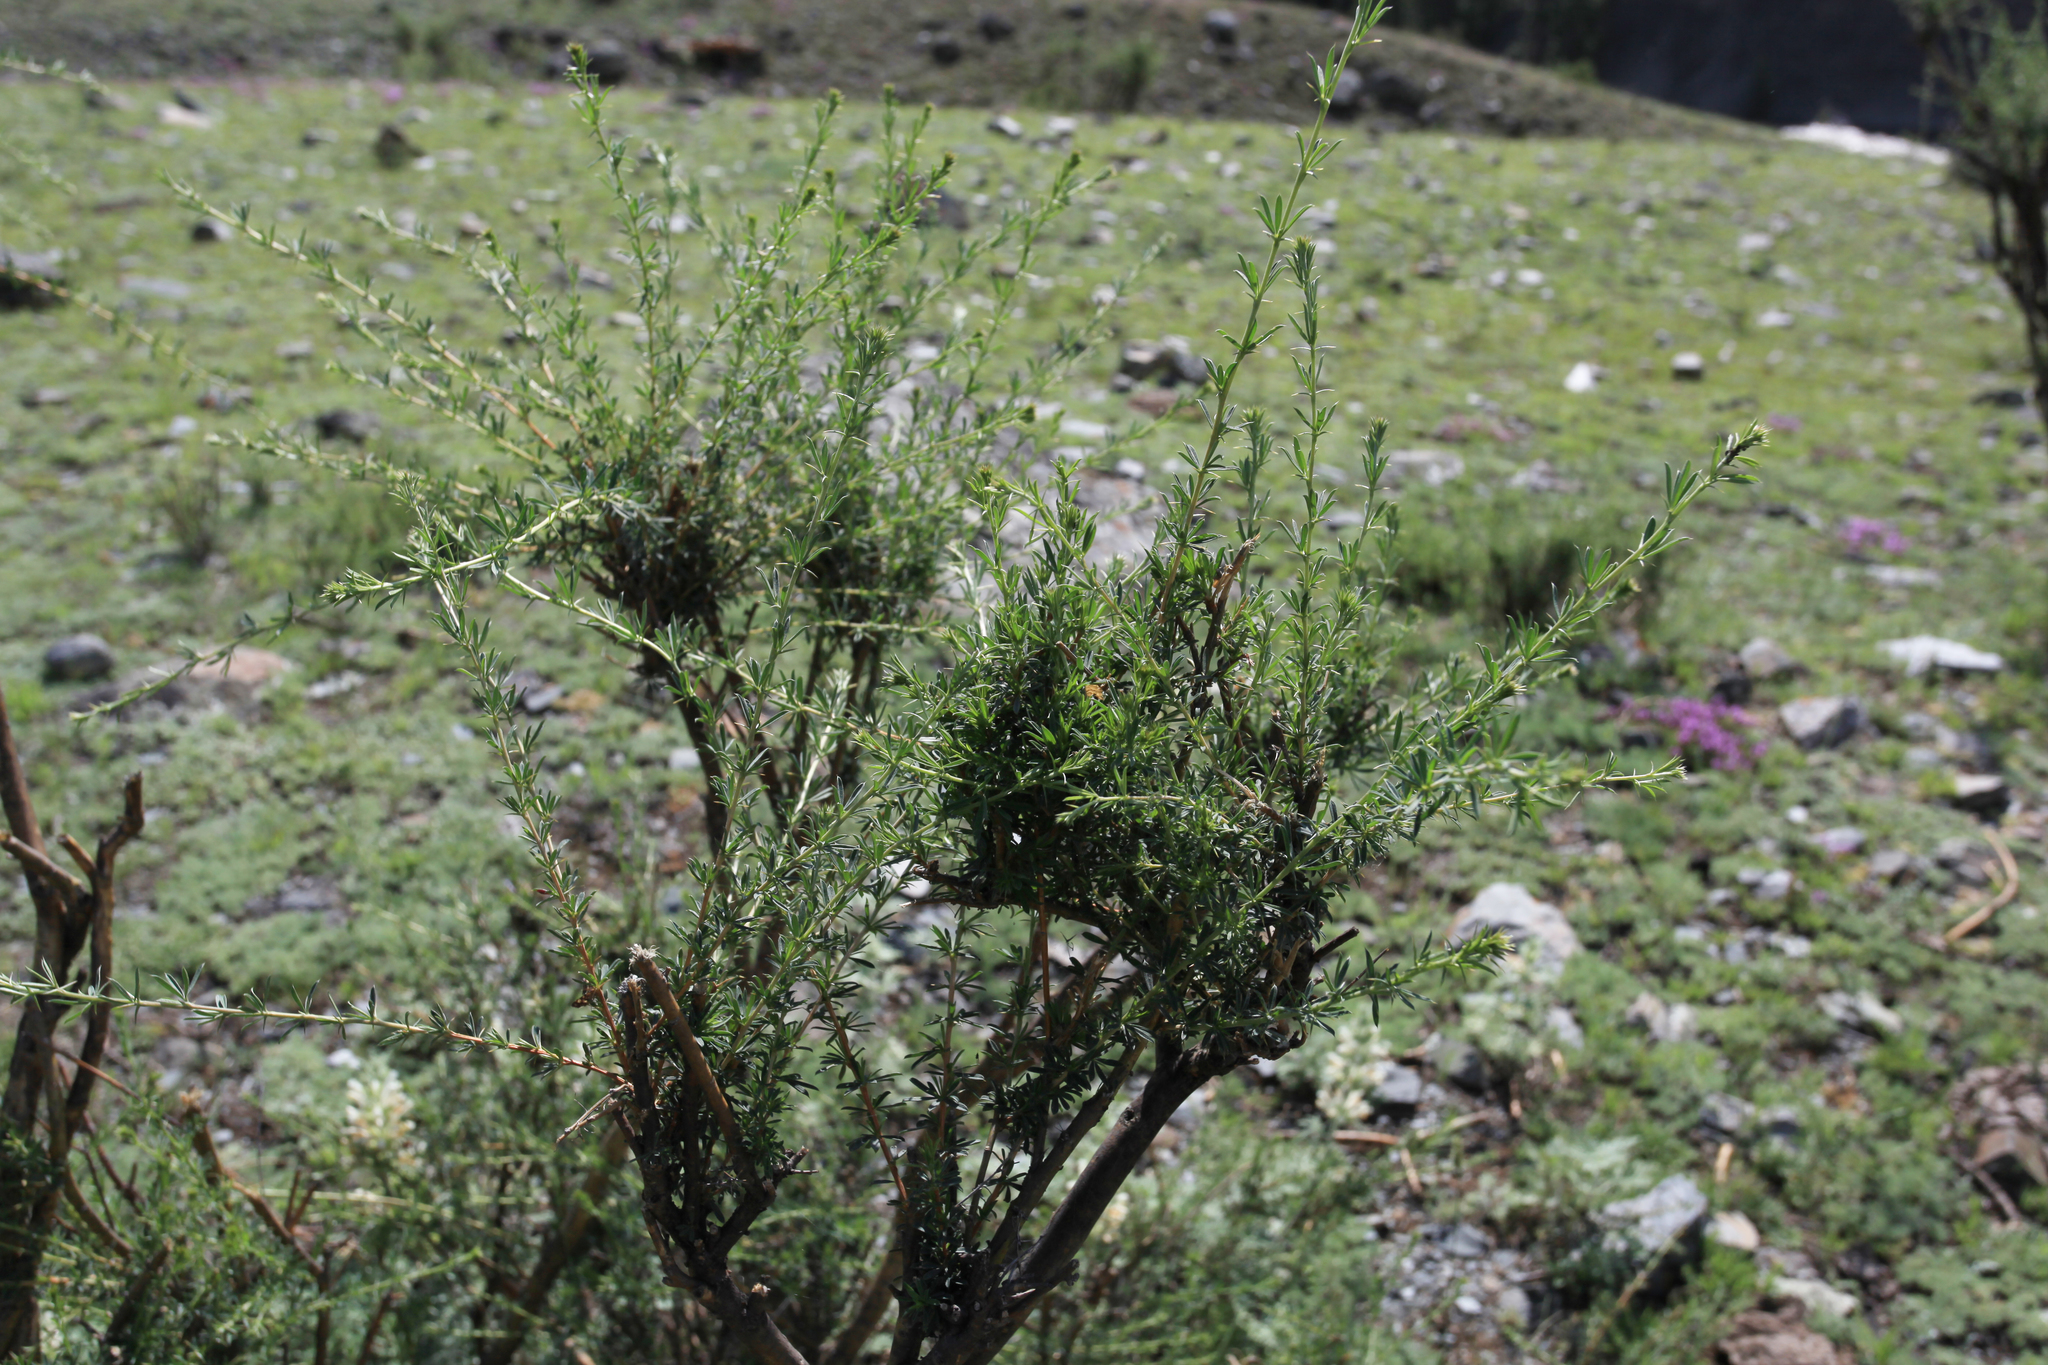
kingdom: Plantae
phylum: Tracheophyta
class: Magnoliopsida
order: Fabales
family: Fabaceae
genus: Caragana
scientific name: Caragana pygmaea
